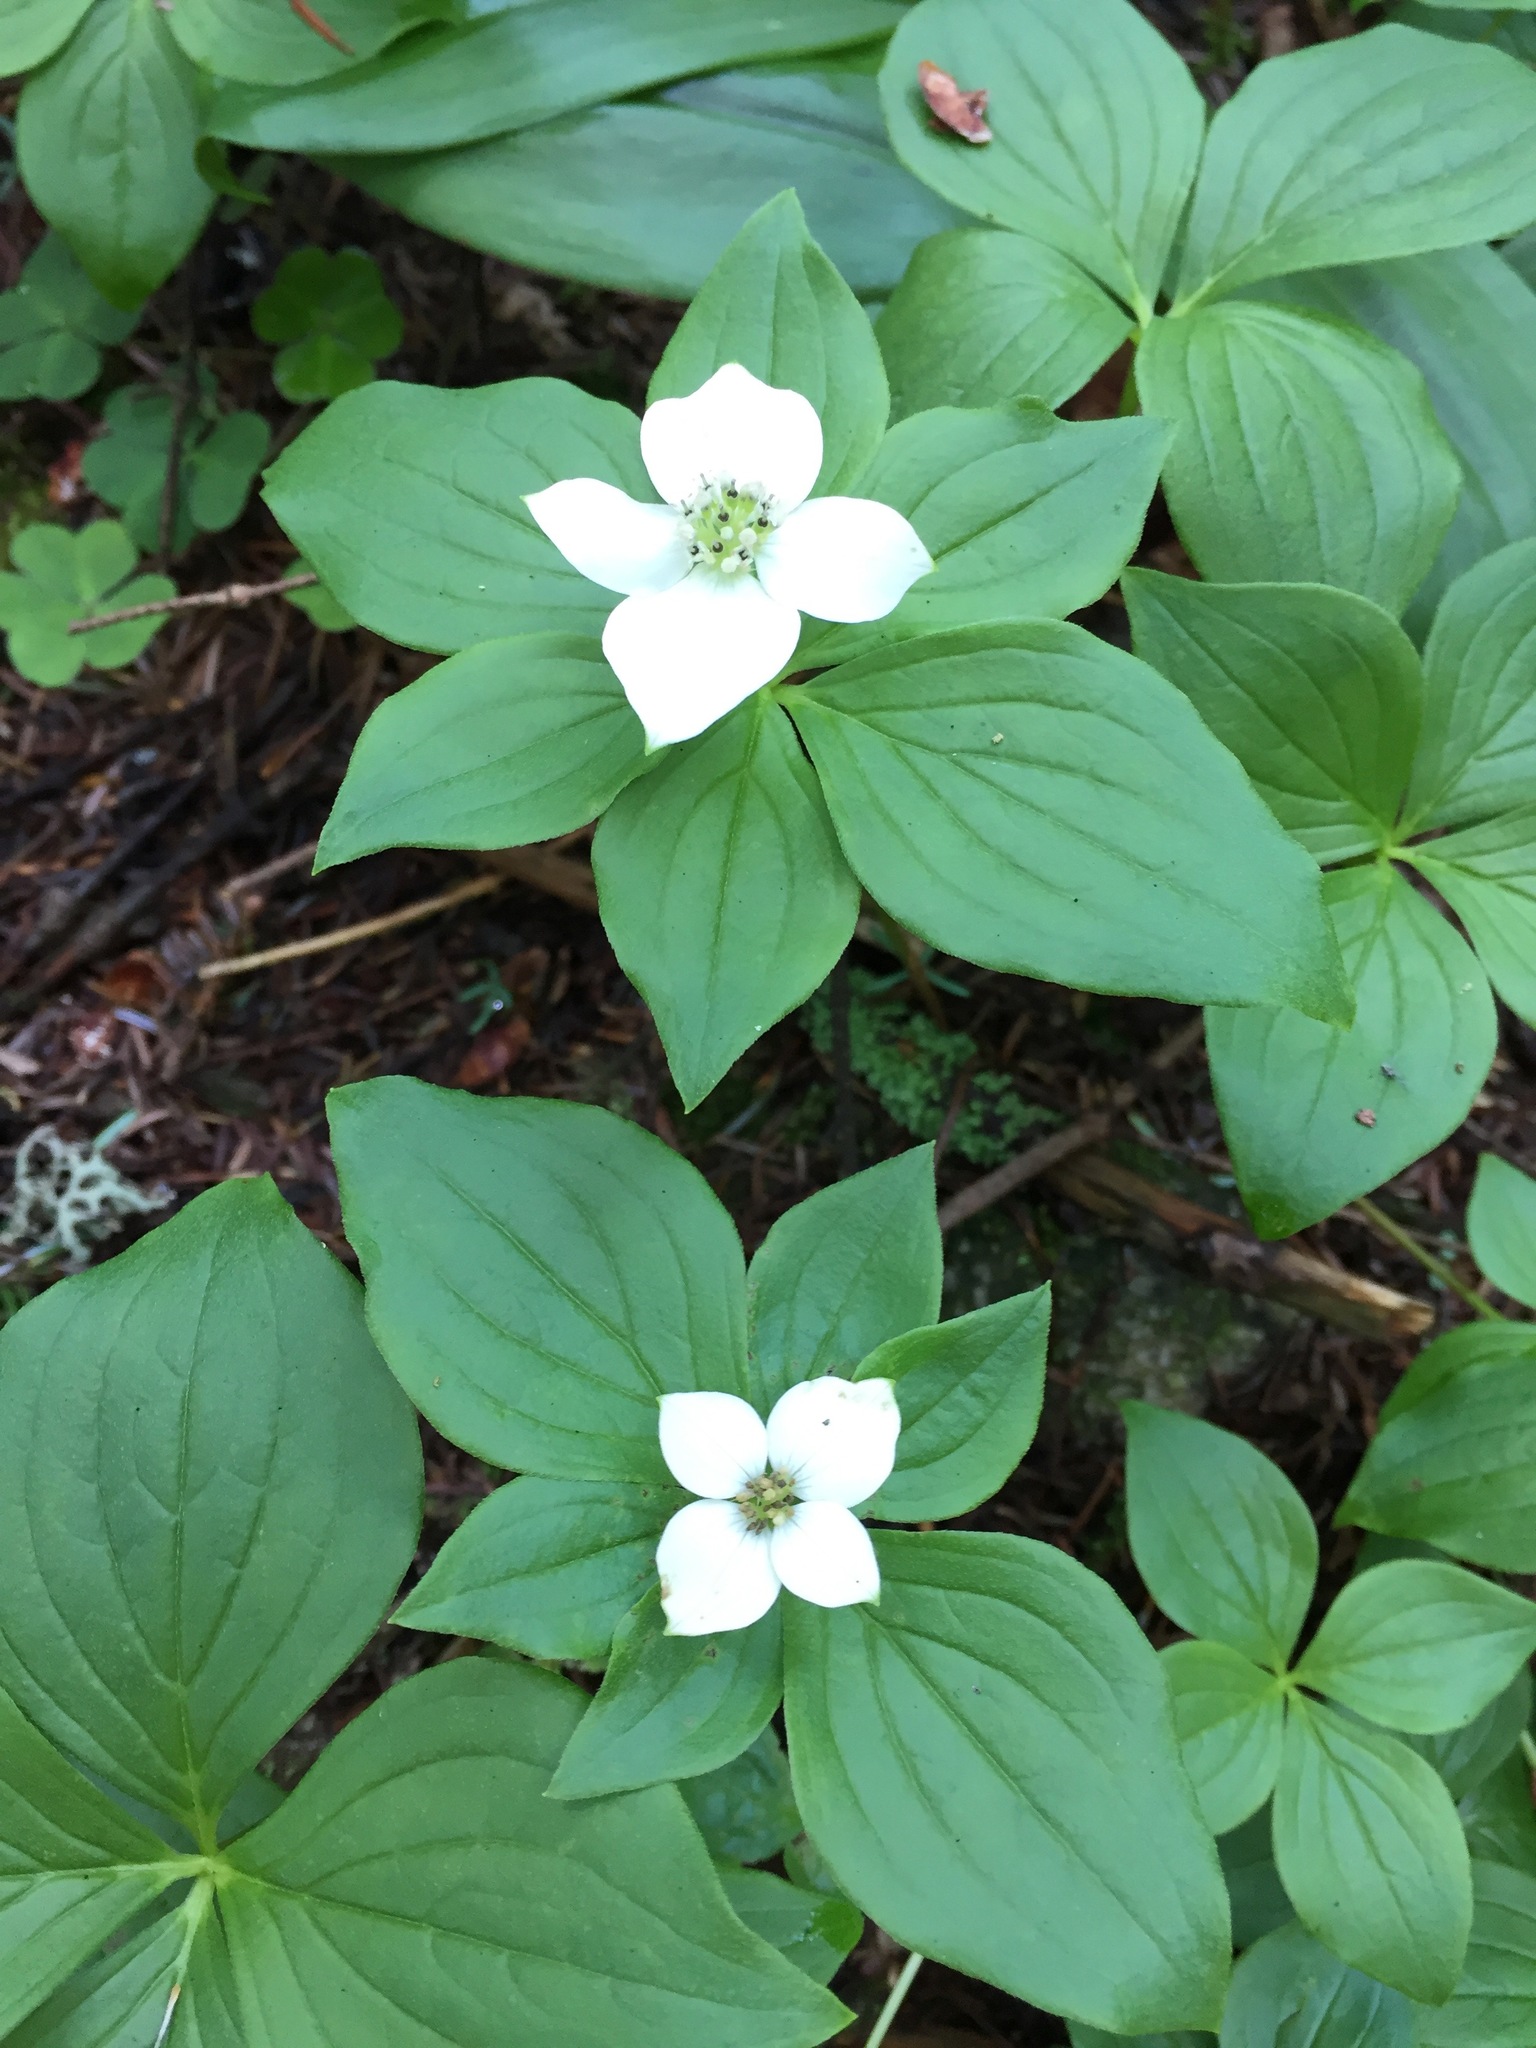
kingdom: Plantae
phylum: Tracheophyta
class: Magnoliopsida
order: Cornales
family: Cornaceae
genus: Cornus
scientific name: Cornus canadensis
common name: Creeping dogwood
